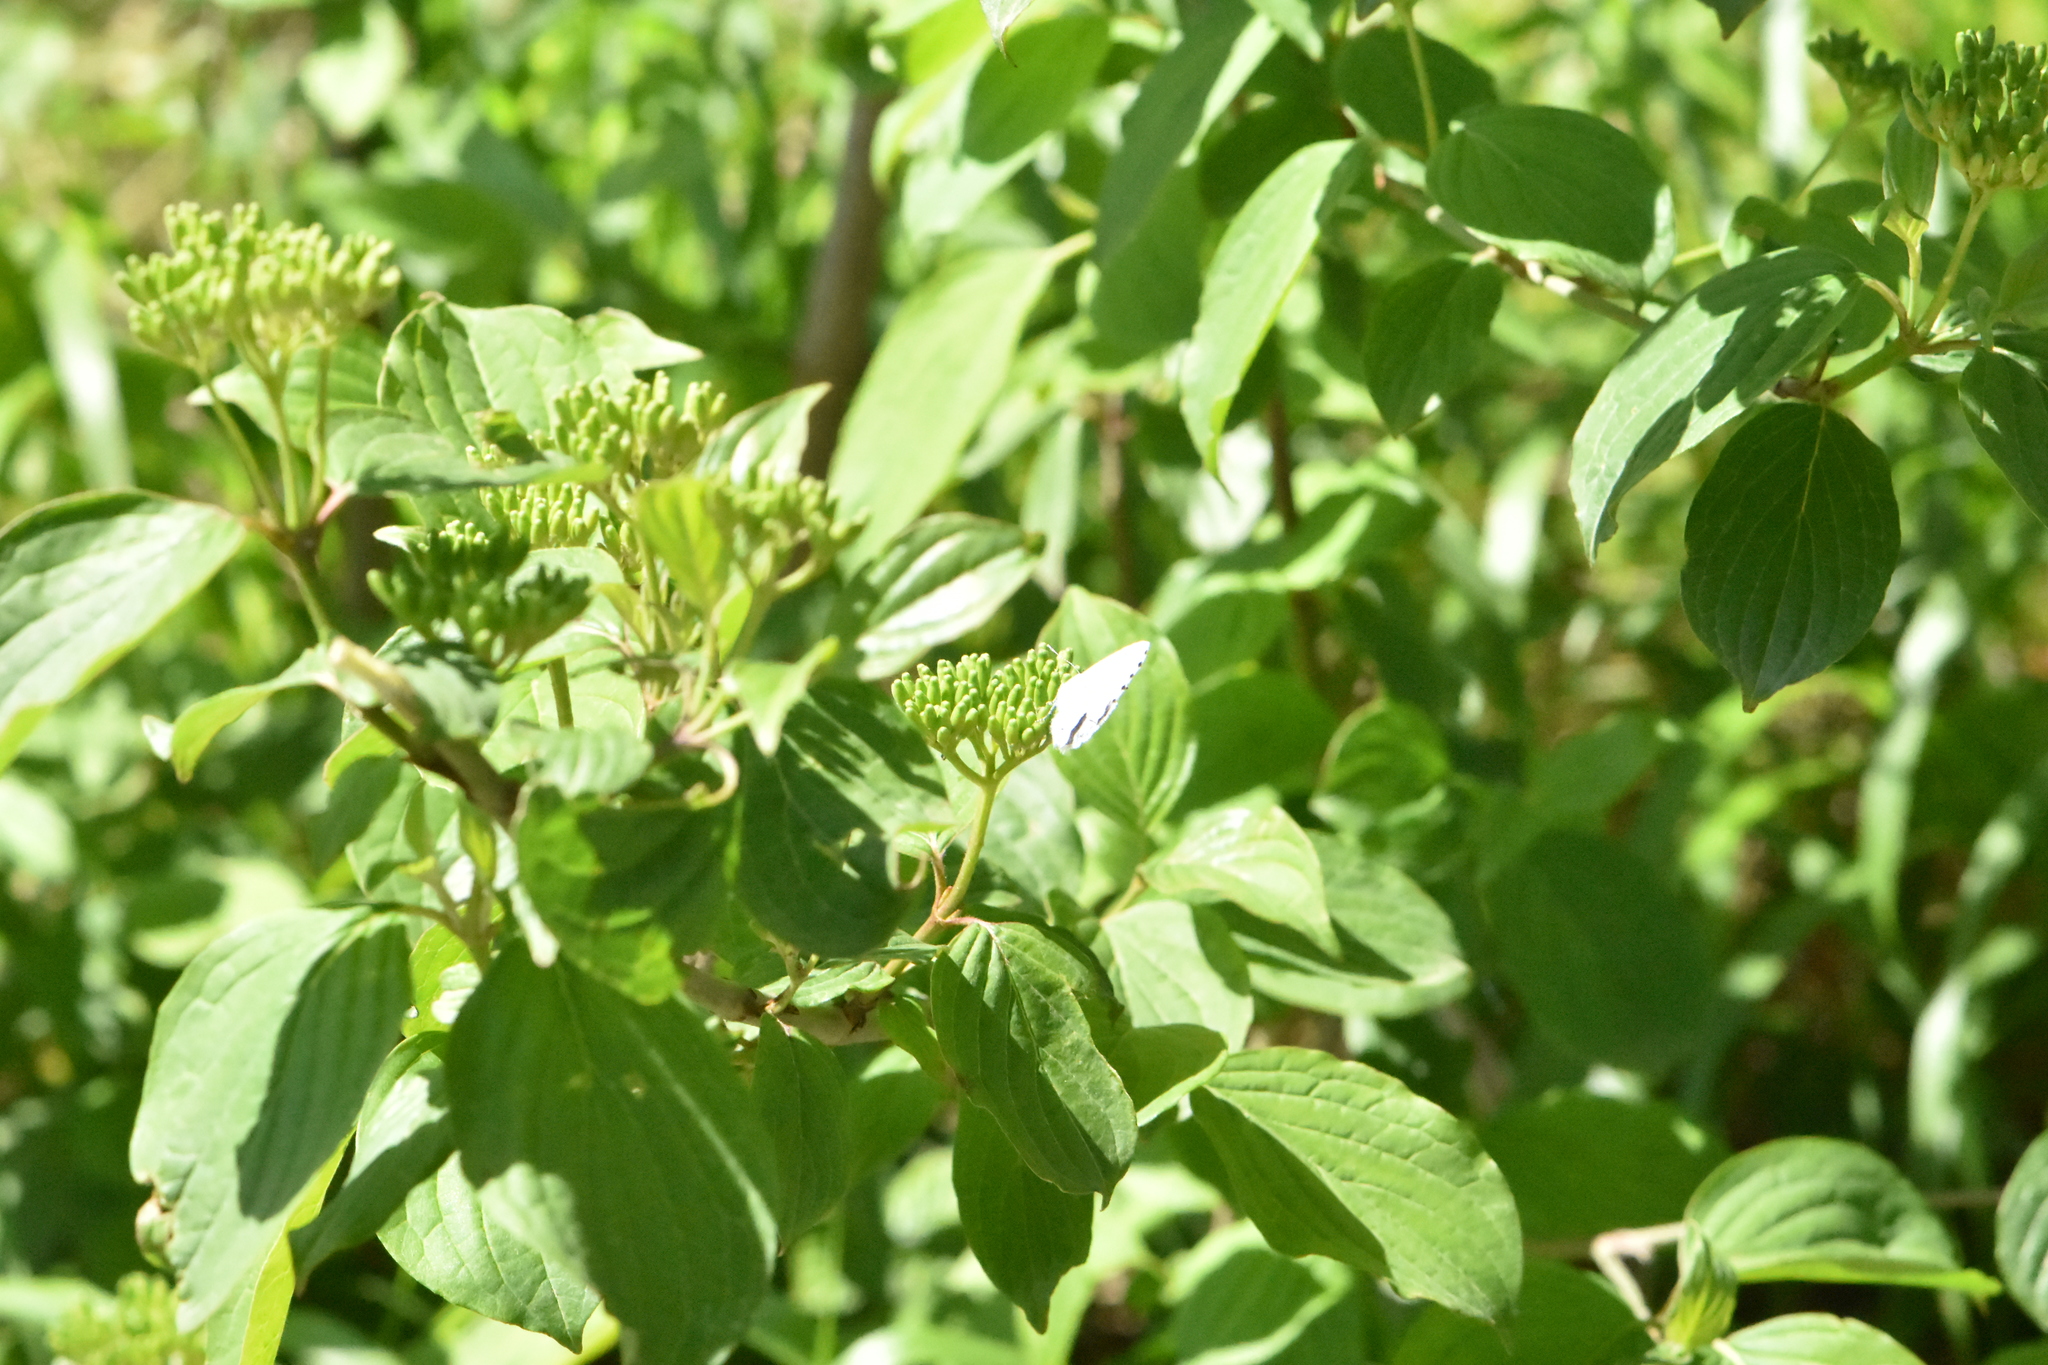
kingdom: Plantae
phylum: Tracheophyta
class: Magnoliopsida
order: Cornales
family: Cornaceae
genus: Cornus
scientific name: Cornus sanguinea
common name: Dogwood
